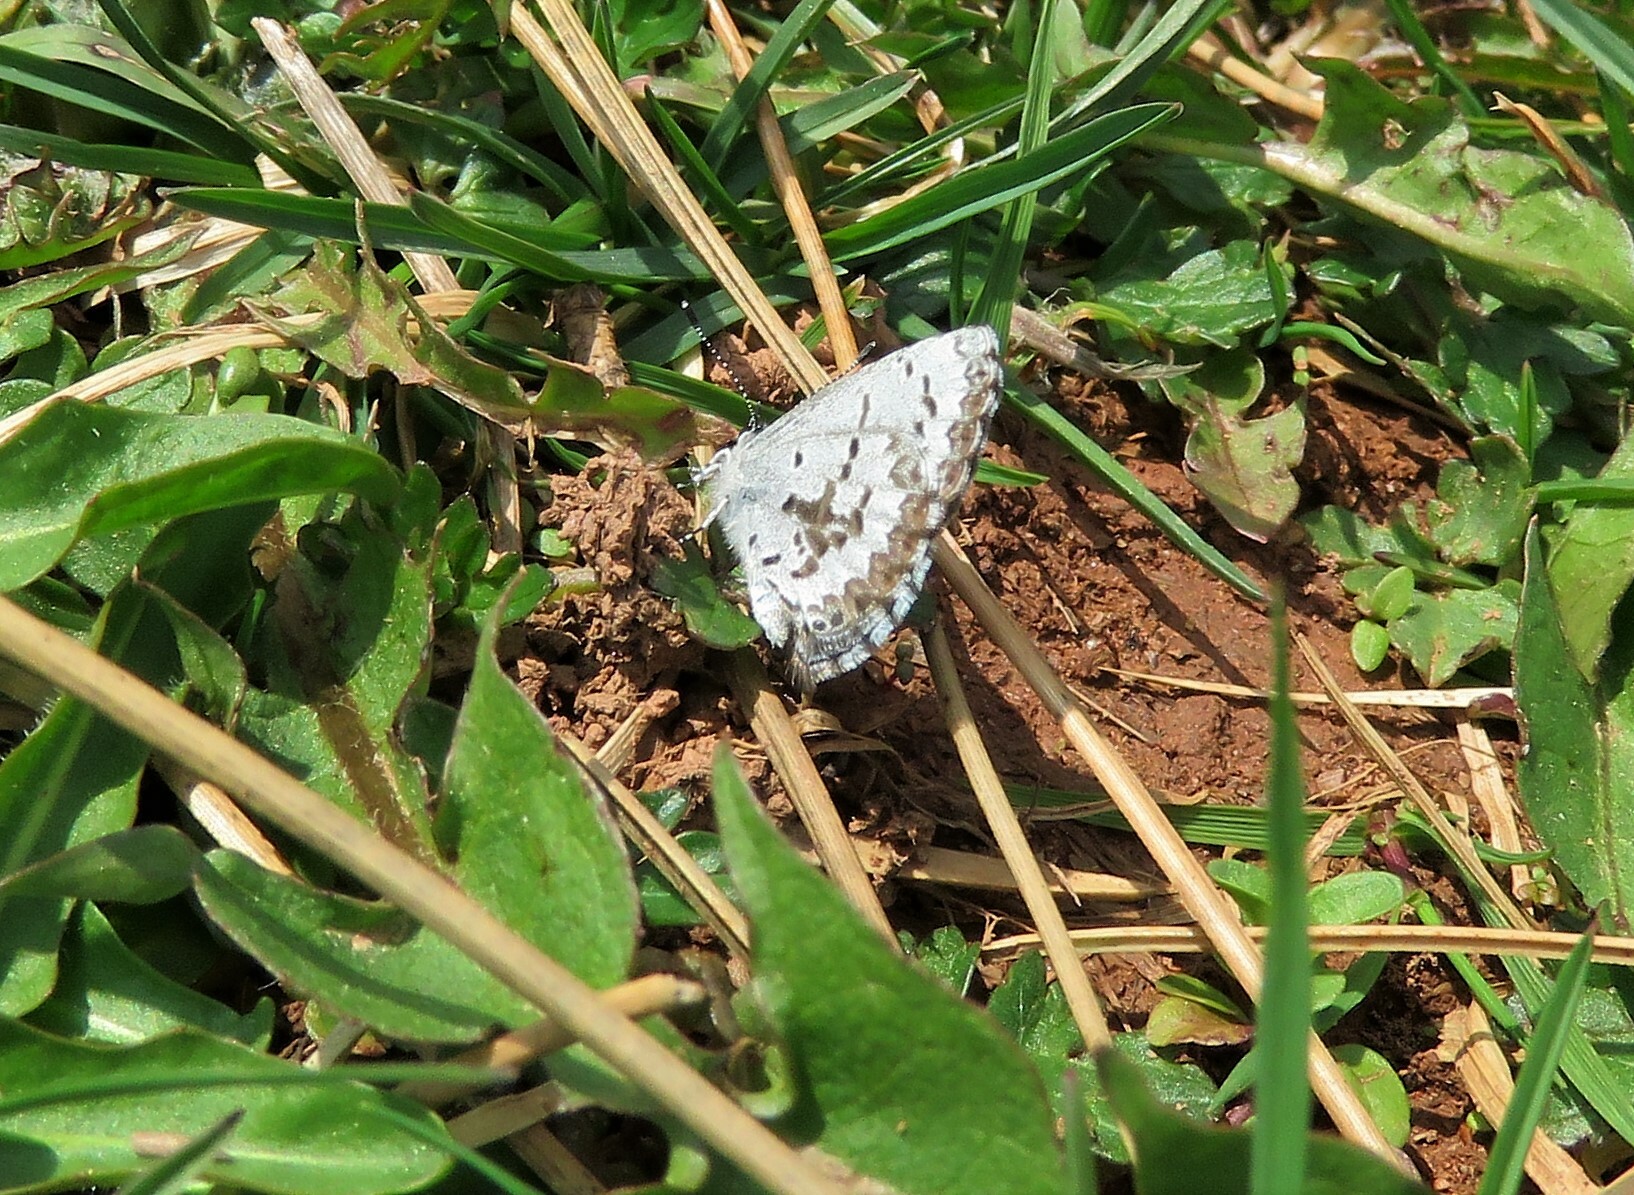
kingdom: Animalia
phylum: Arthropoda
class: Insecta
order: Lepidoptera
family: Lycaenidae
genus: Celastrina
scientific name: Celastrina lucia
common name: Lucia azure
